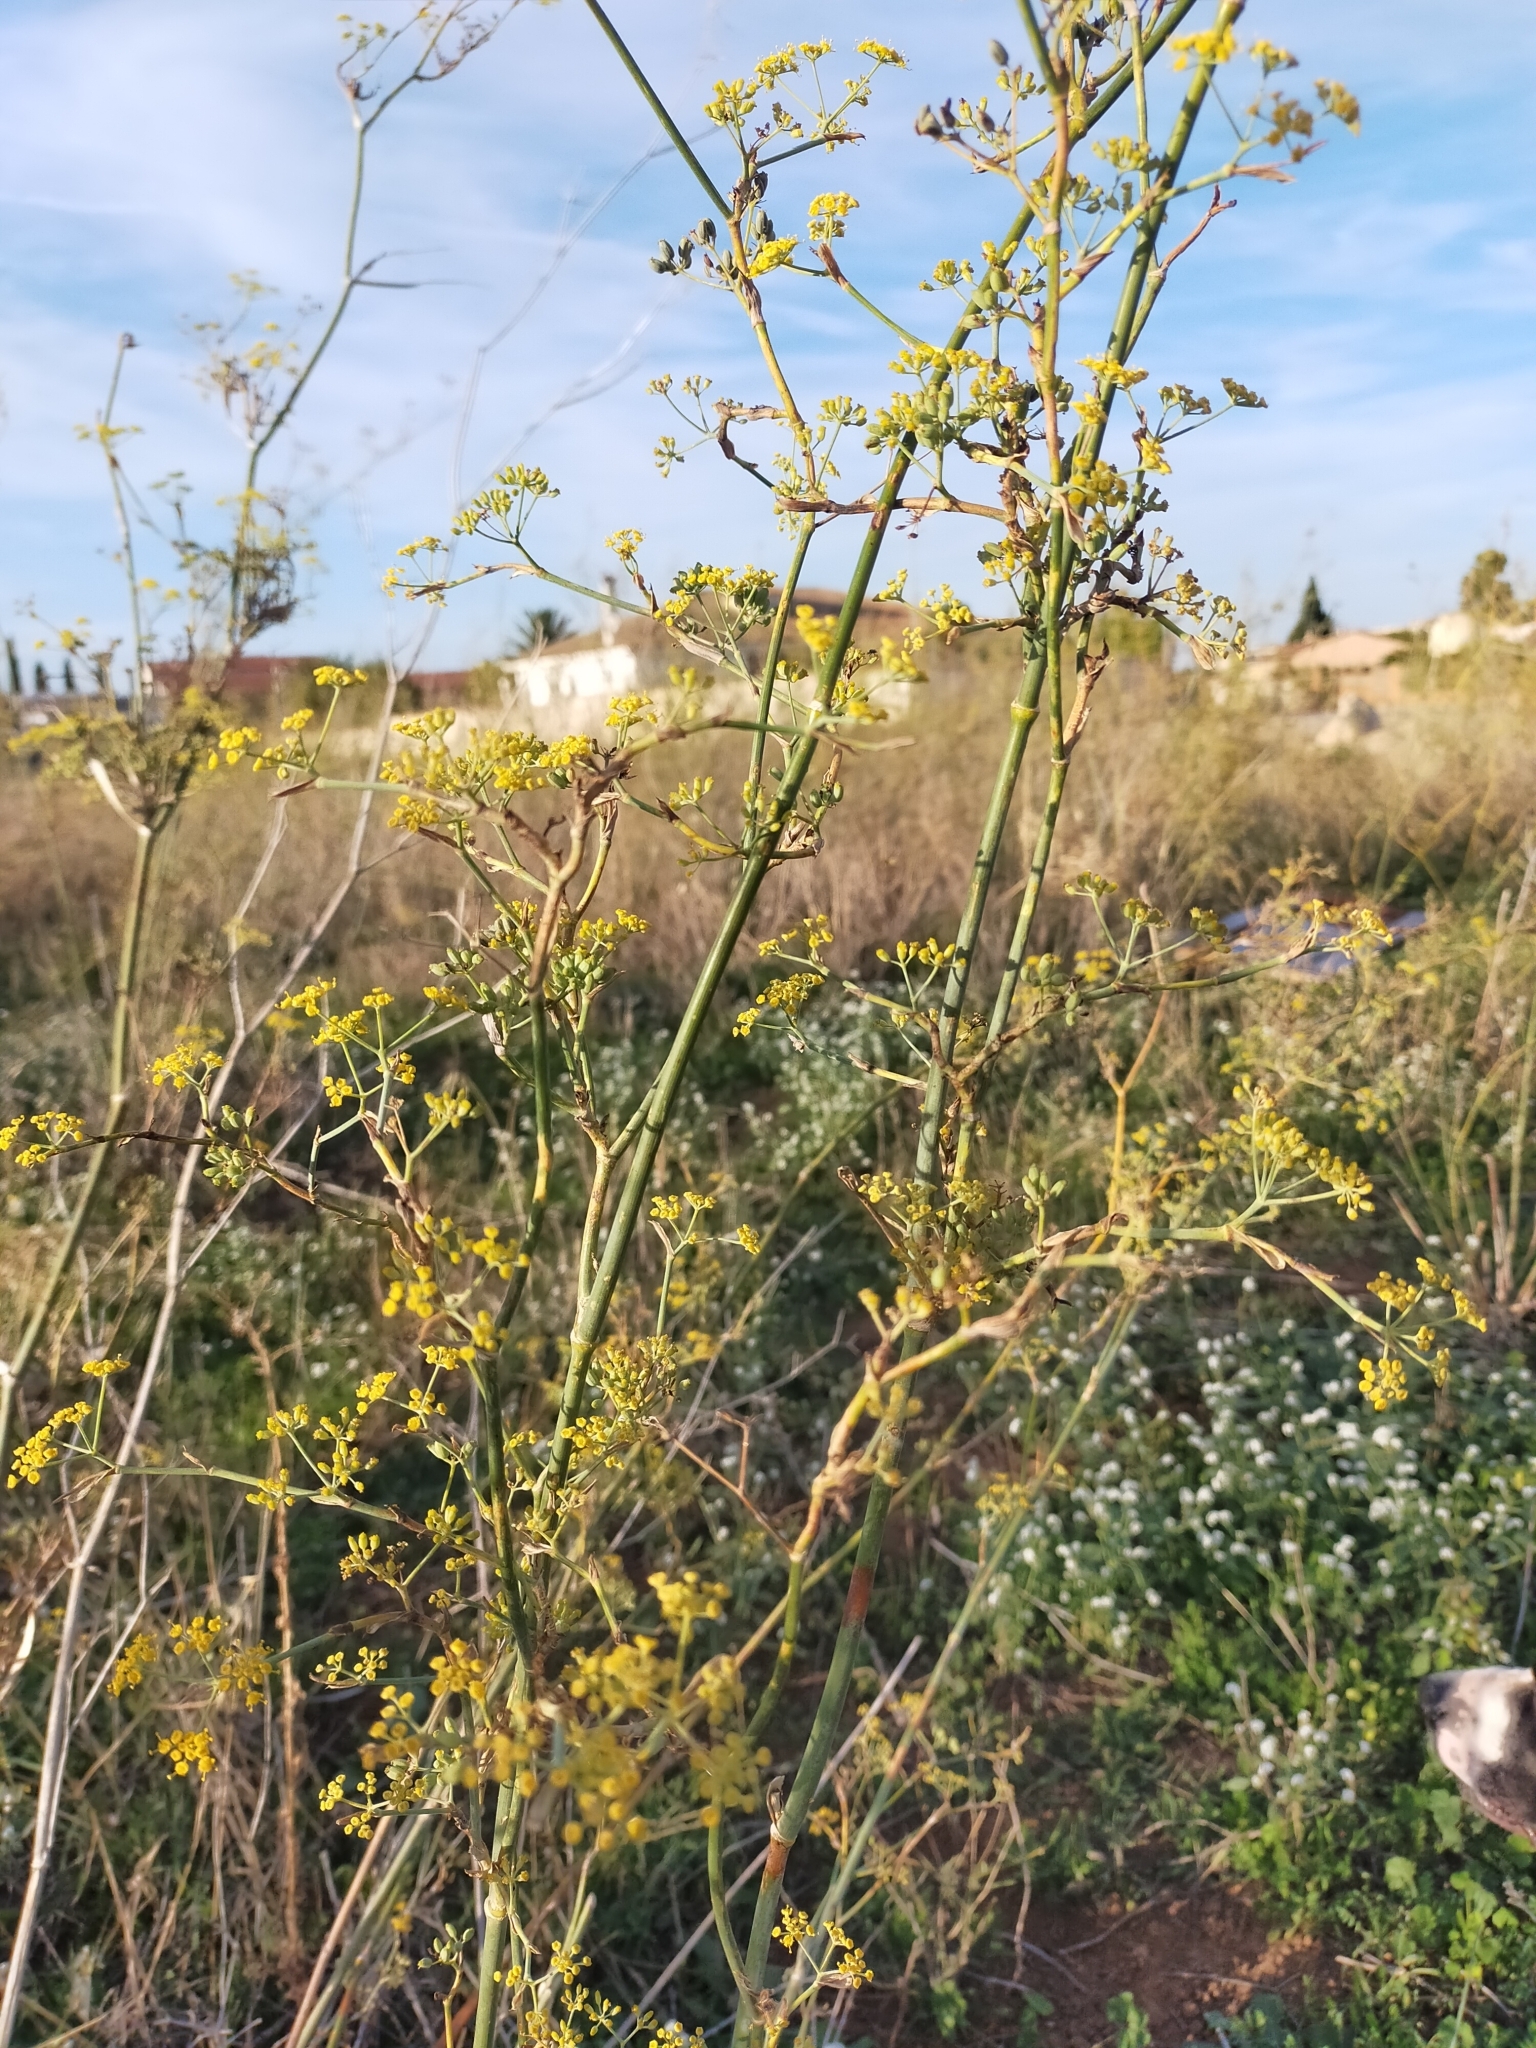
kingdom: Plantae
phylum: Tracheophyta
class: Magnoliopsida
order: Apiales
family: Apiaceae
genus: Foeniculum
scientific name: Foeniculum vulgare
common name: Fennel
